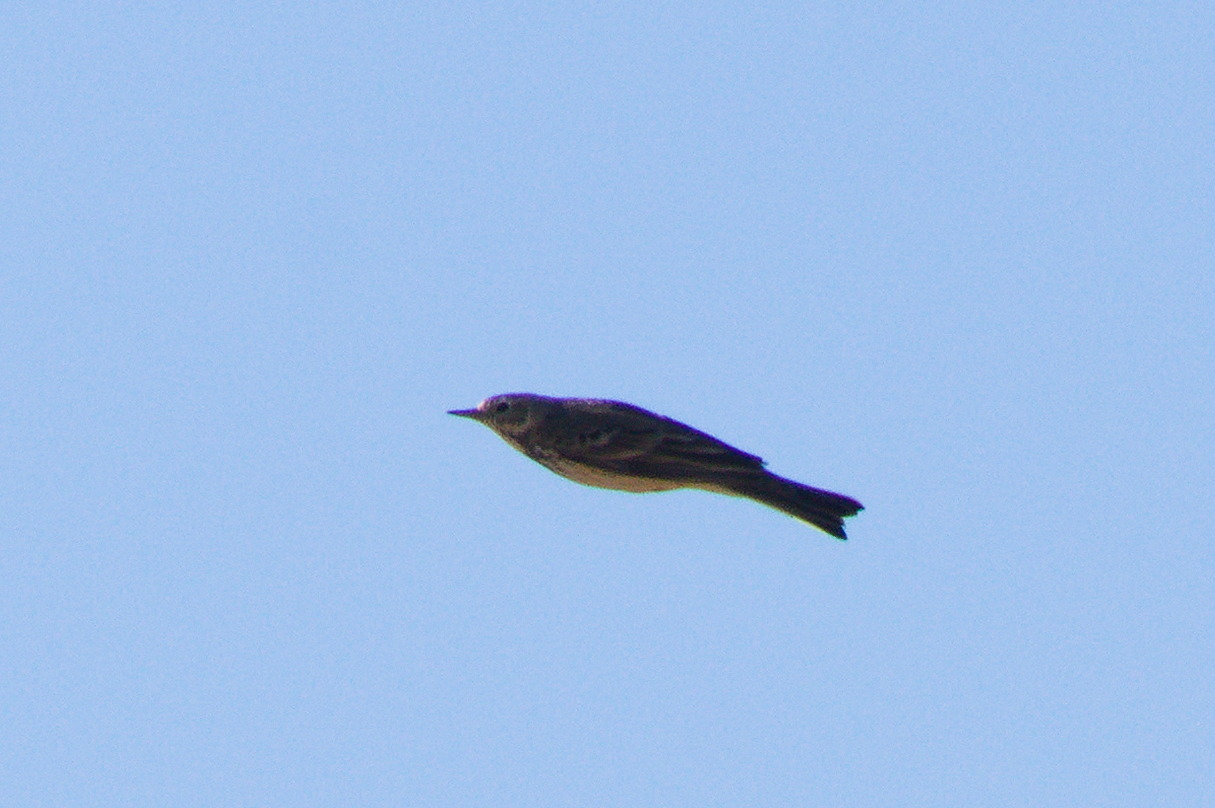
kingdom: Animalia
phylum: Chordata
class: Aves
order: Passeriformes
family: Motacillidae
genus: Anthus
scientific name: Anthus rubescens
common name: Buff-bellied pipit
